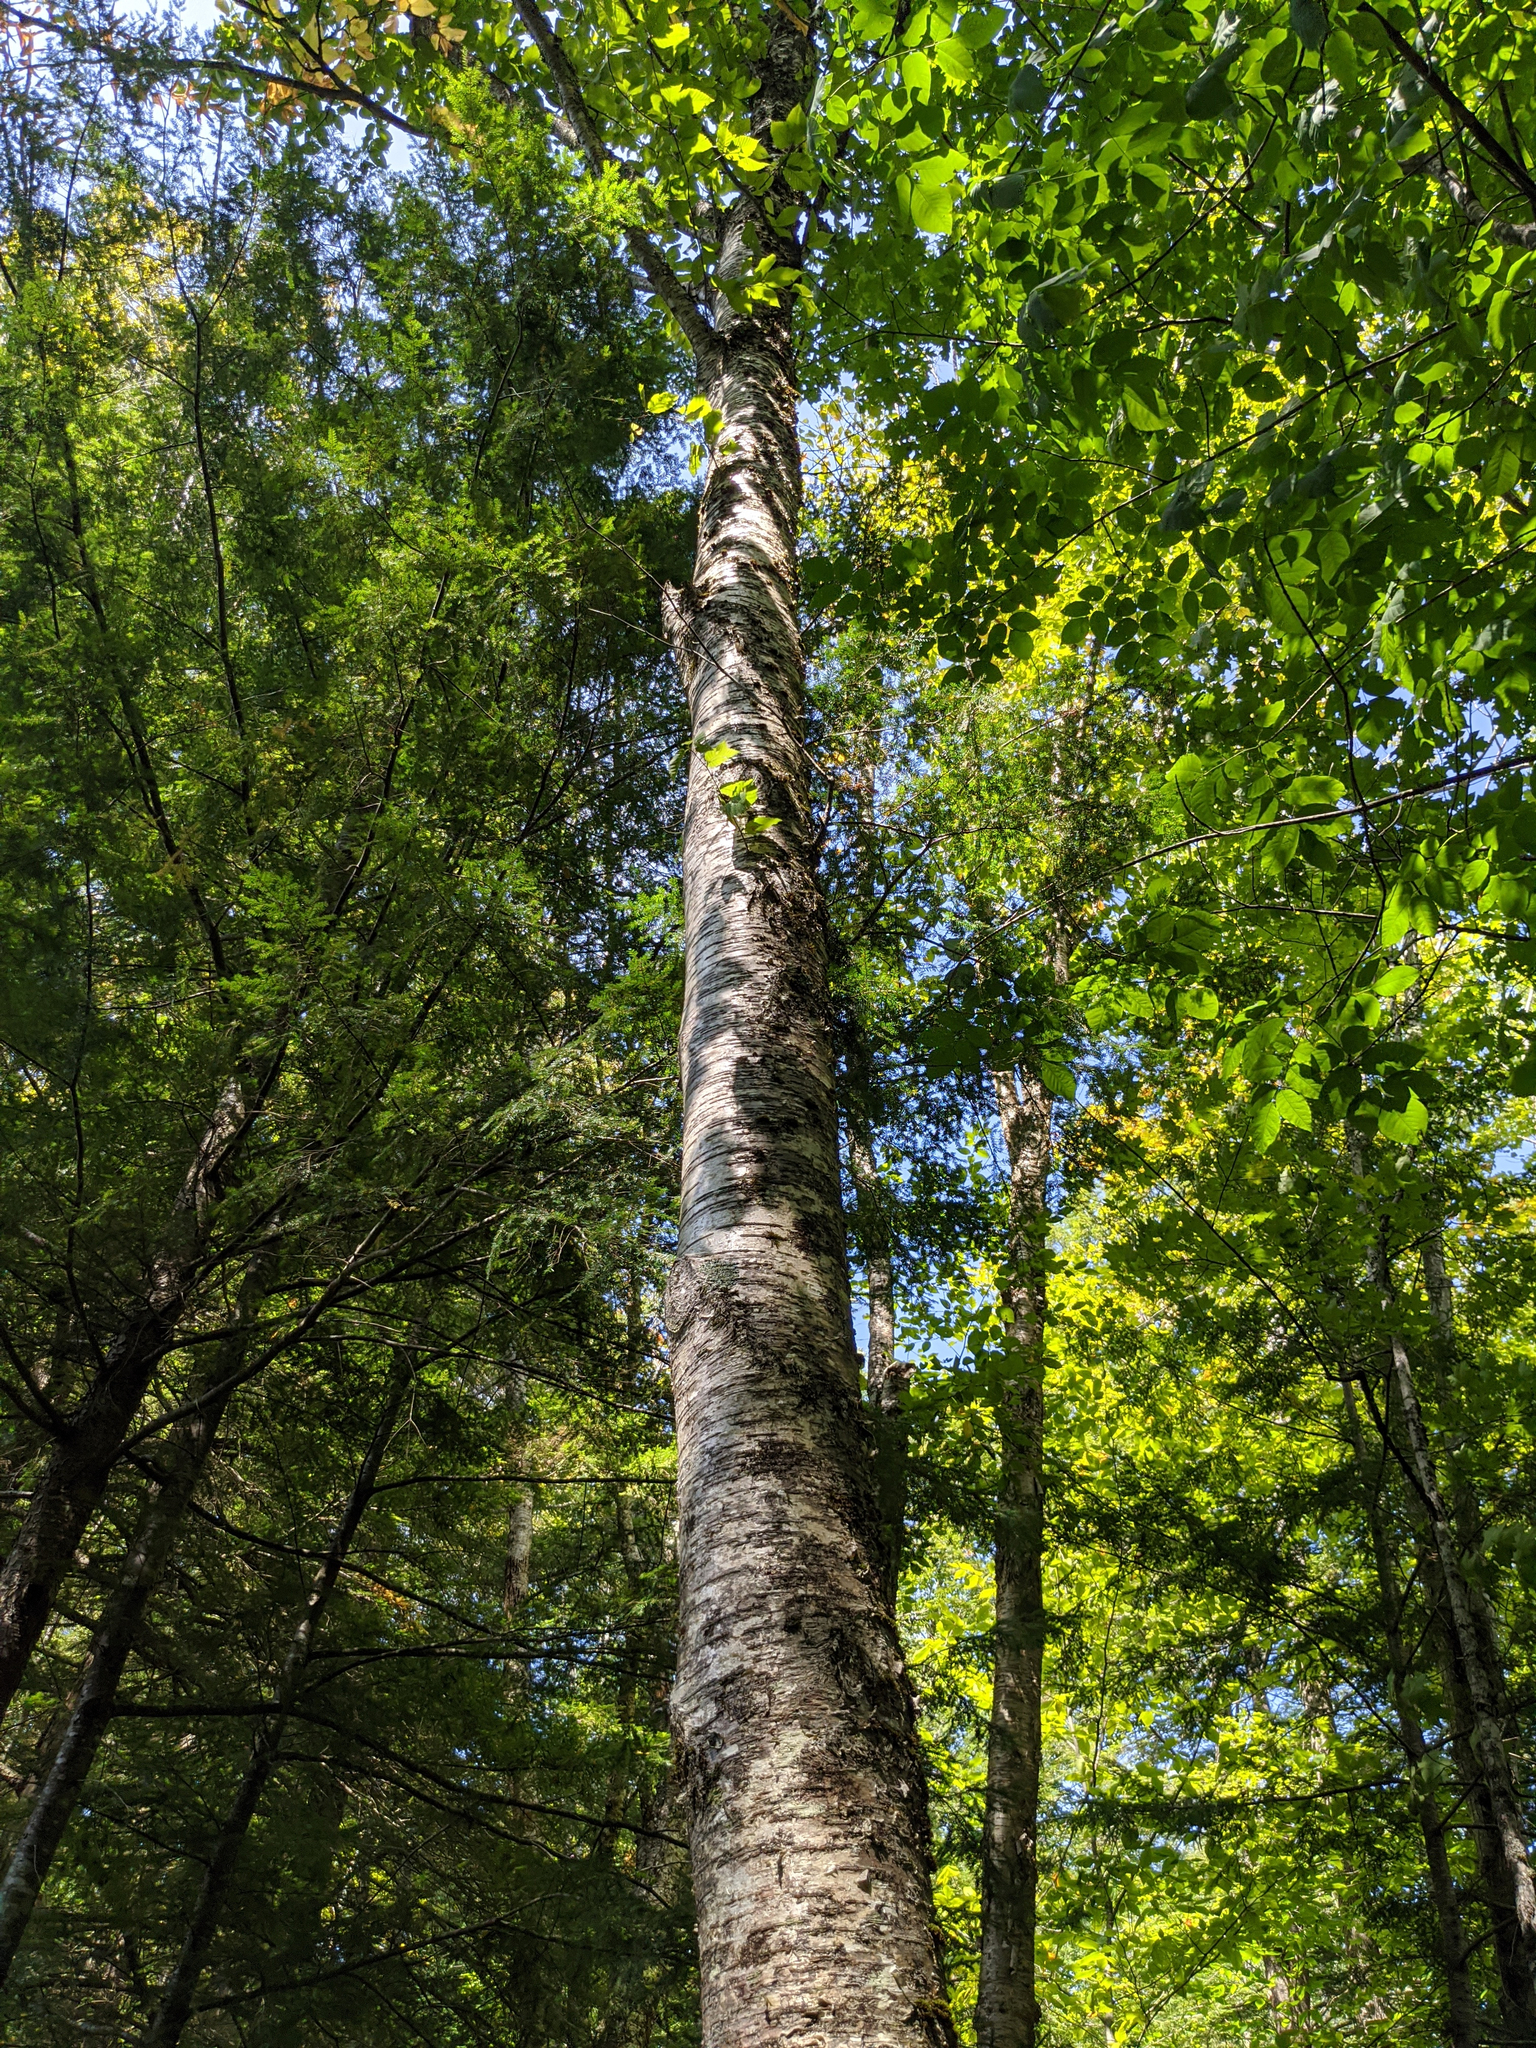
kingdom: Plantae
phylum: Tracheophyta
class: Magnoliopsida
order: Fagales
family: Betulaceae
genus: Betula
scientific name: Betula alleghaniensis
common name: Yellow birch
